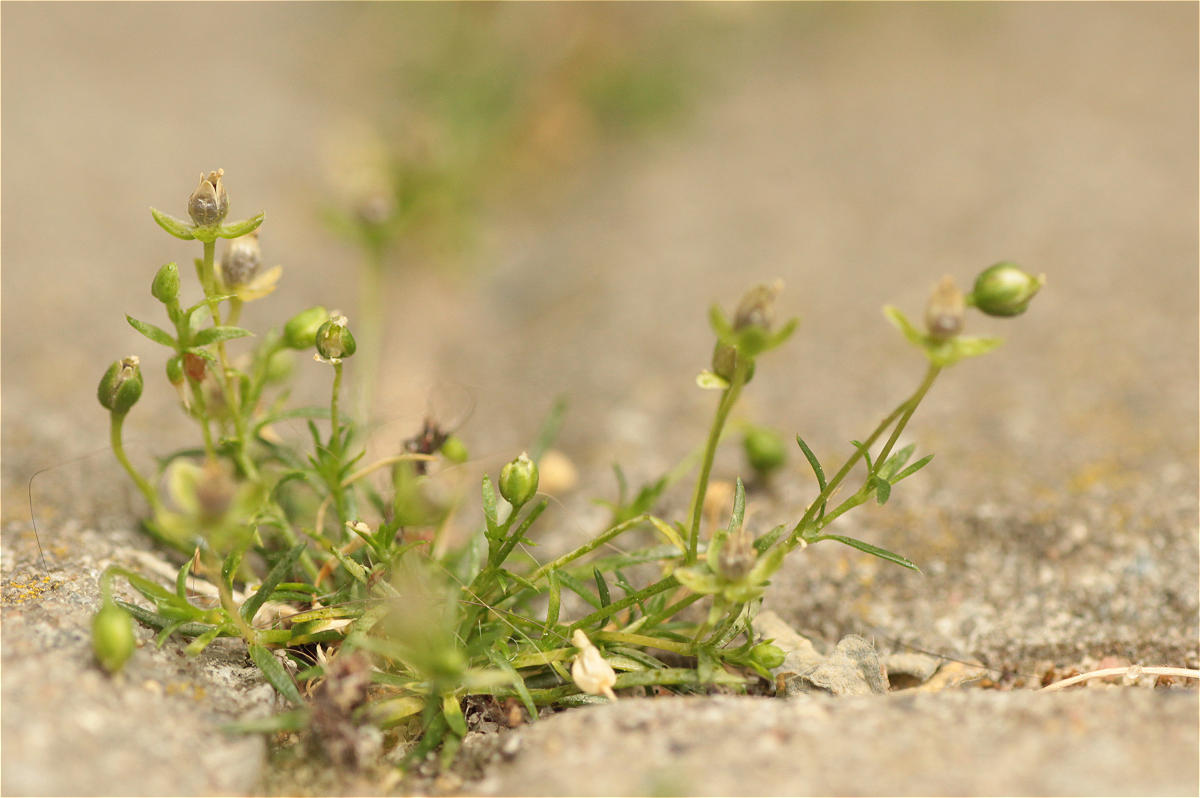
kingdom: Plantae
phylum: Tracheophyta
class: Magnoliopsida
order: Caryophyllales
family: Caryophyllaceae
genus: Sagina
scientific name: Sagina procumbens
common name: Procumbent pearlwort
